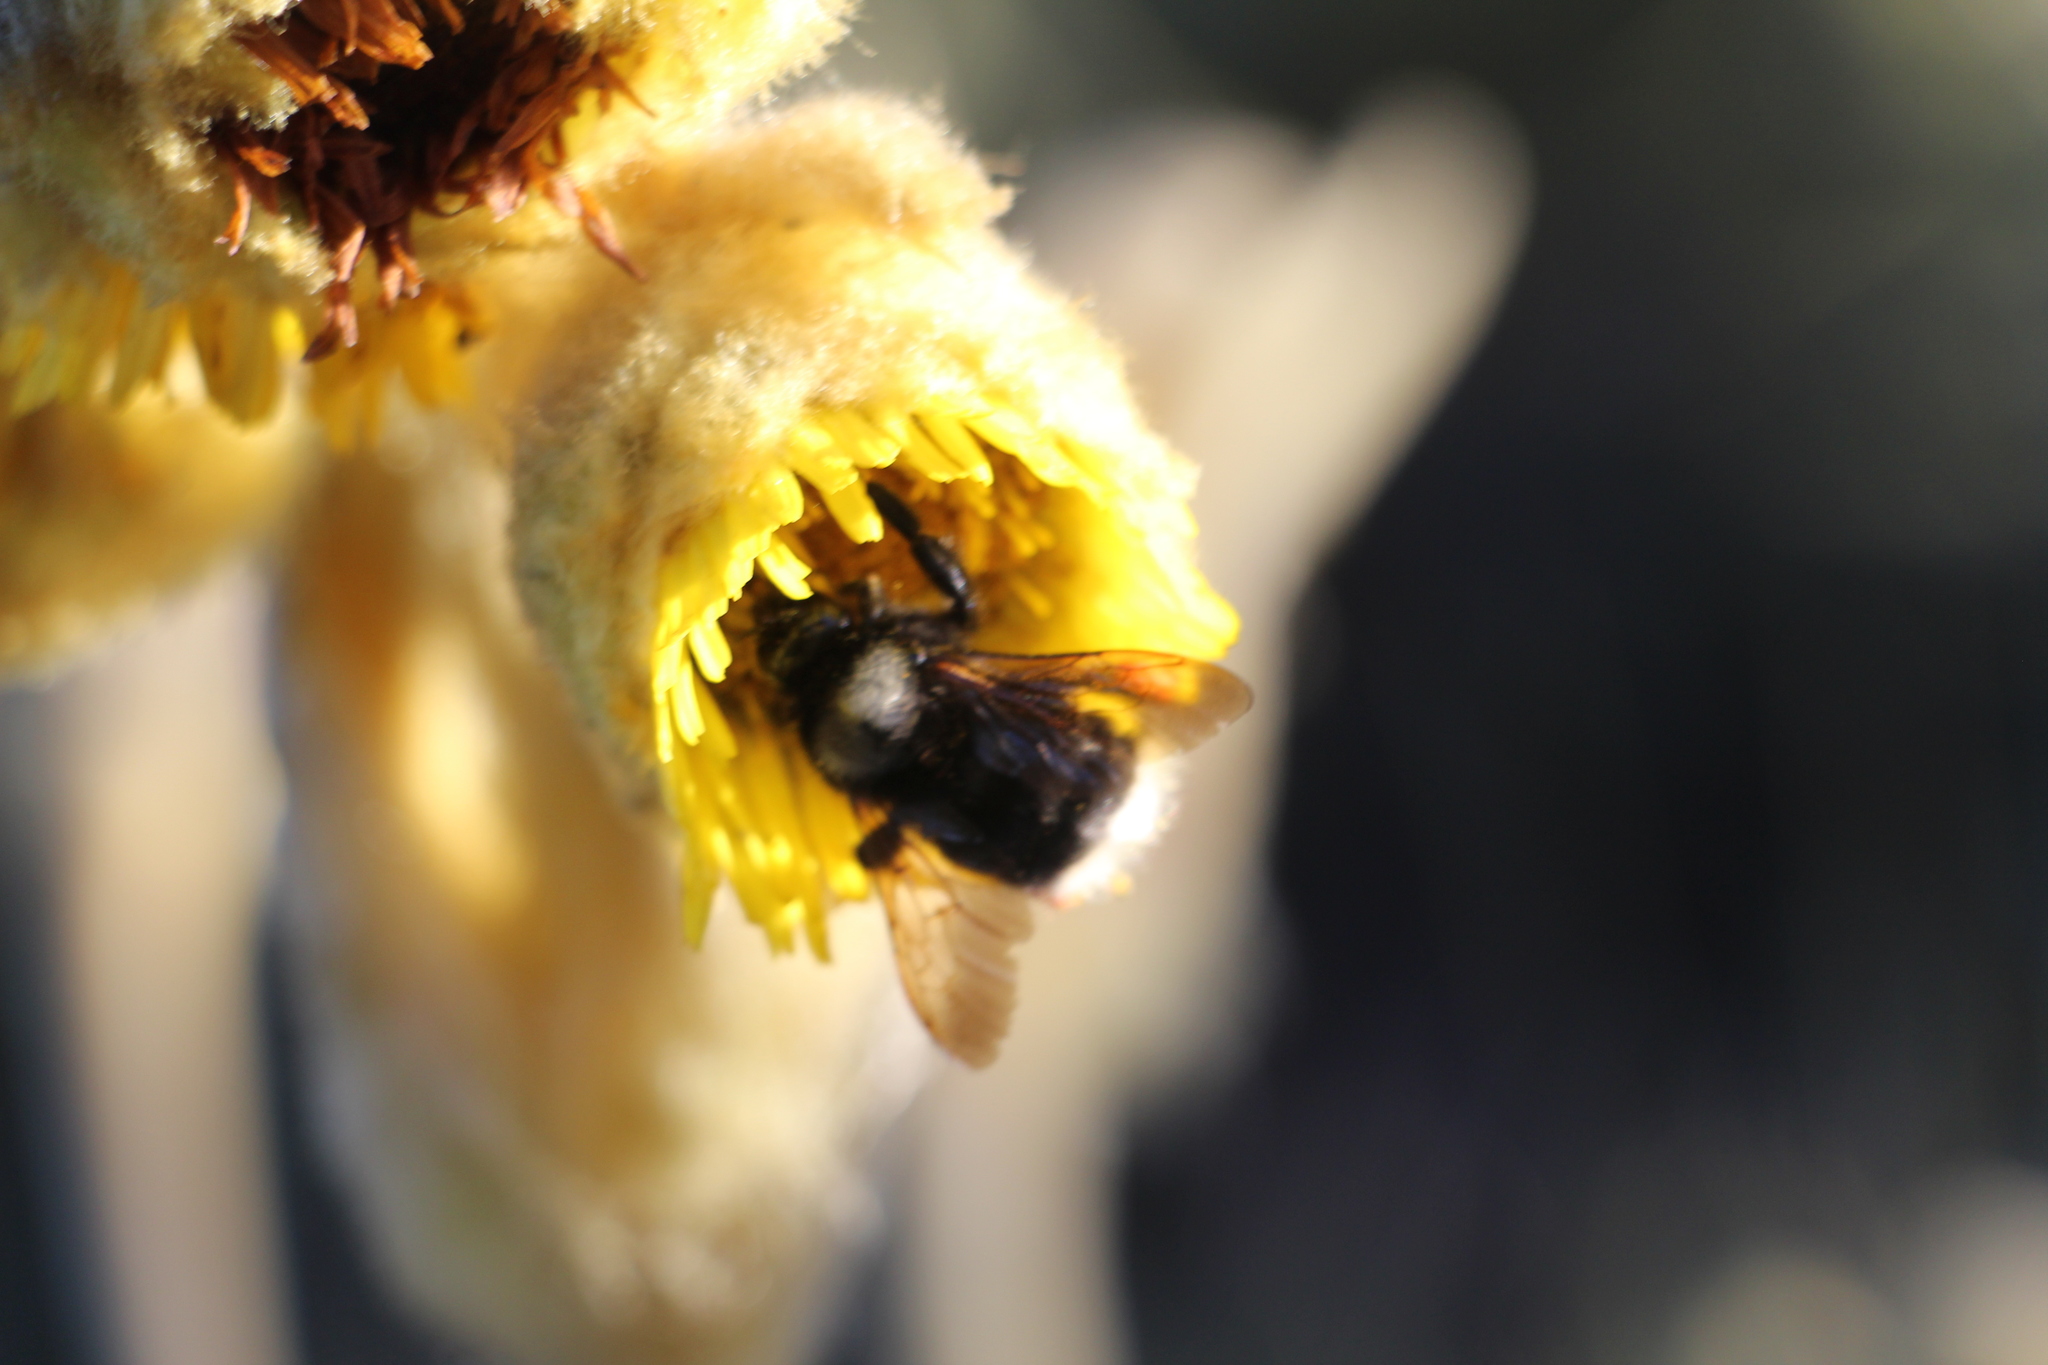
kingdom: Animalia
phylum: Arthropoda
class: Insecta
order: Hymenoptera
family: Apidae
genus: Bombus
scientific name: Bombus funebris
